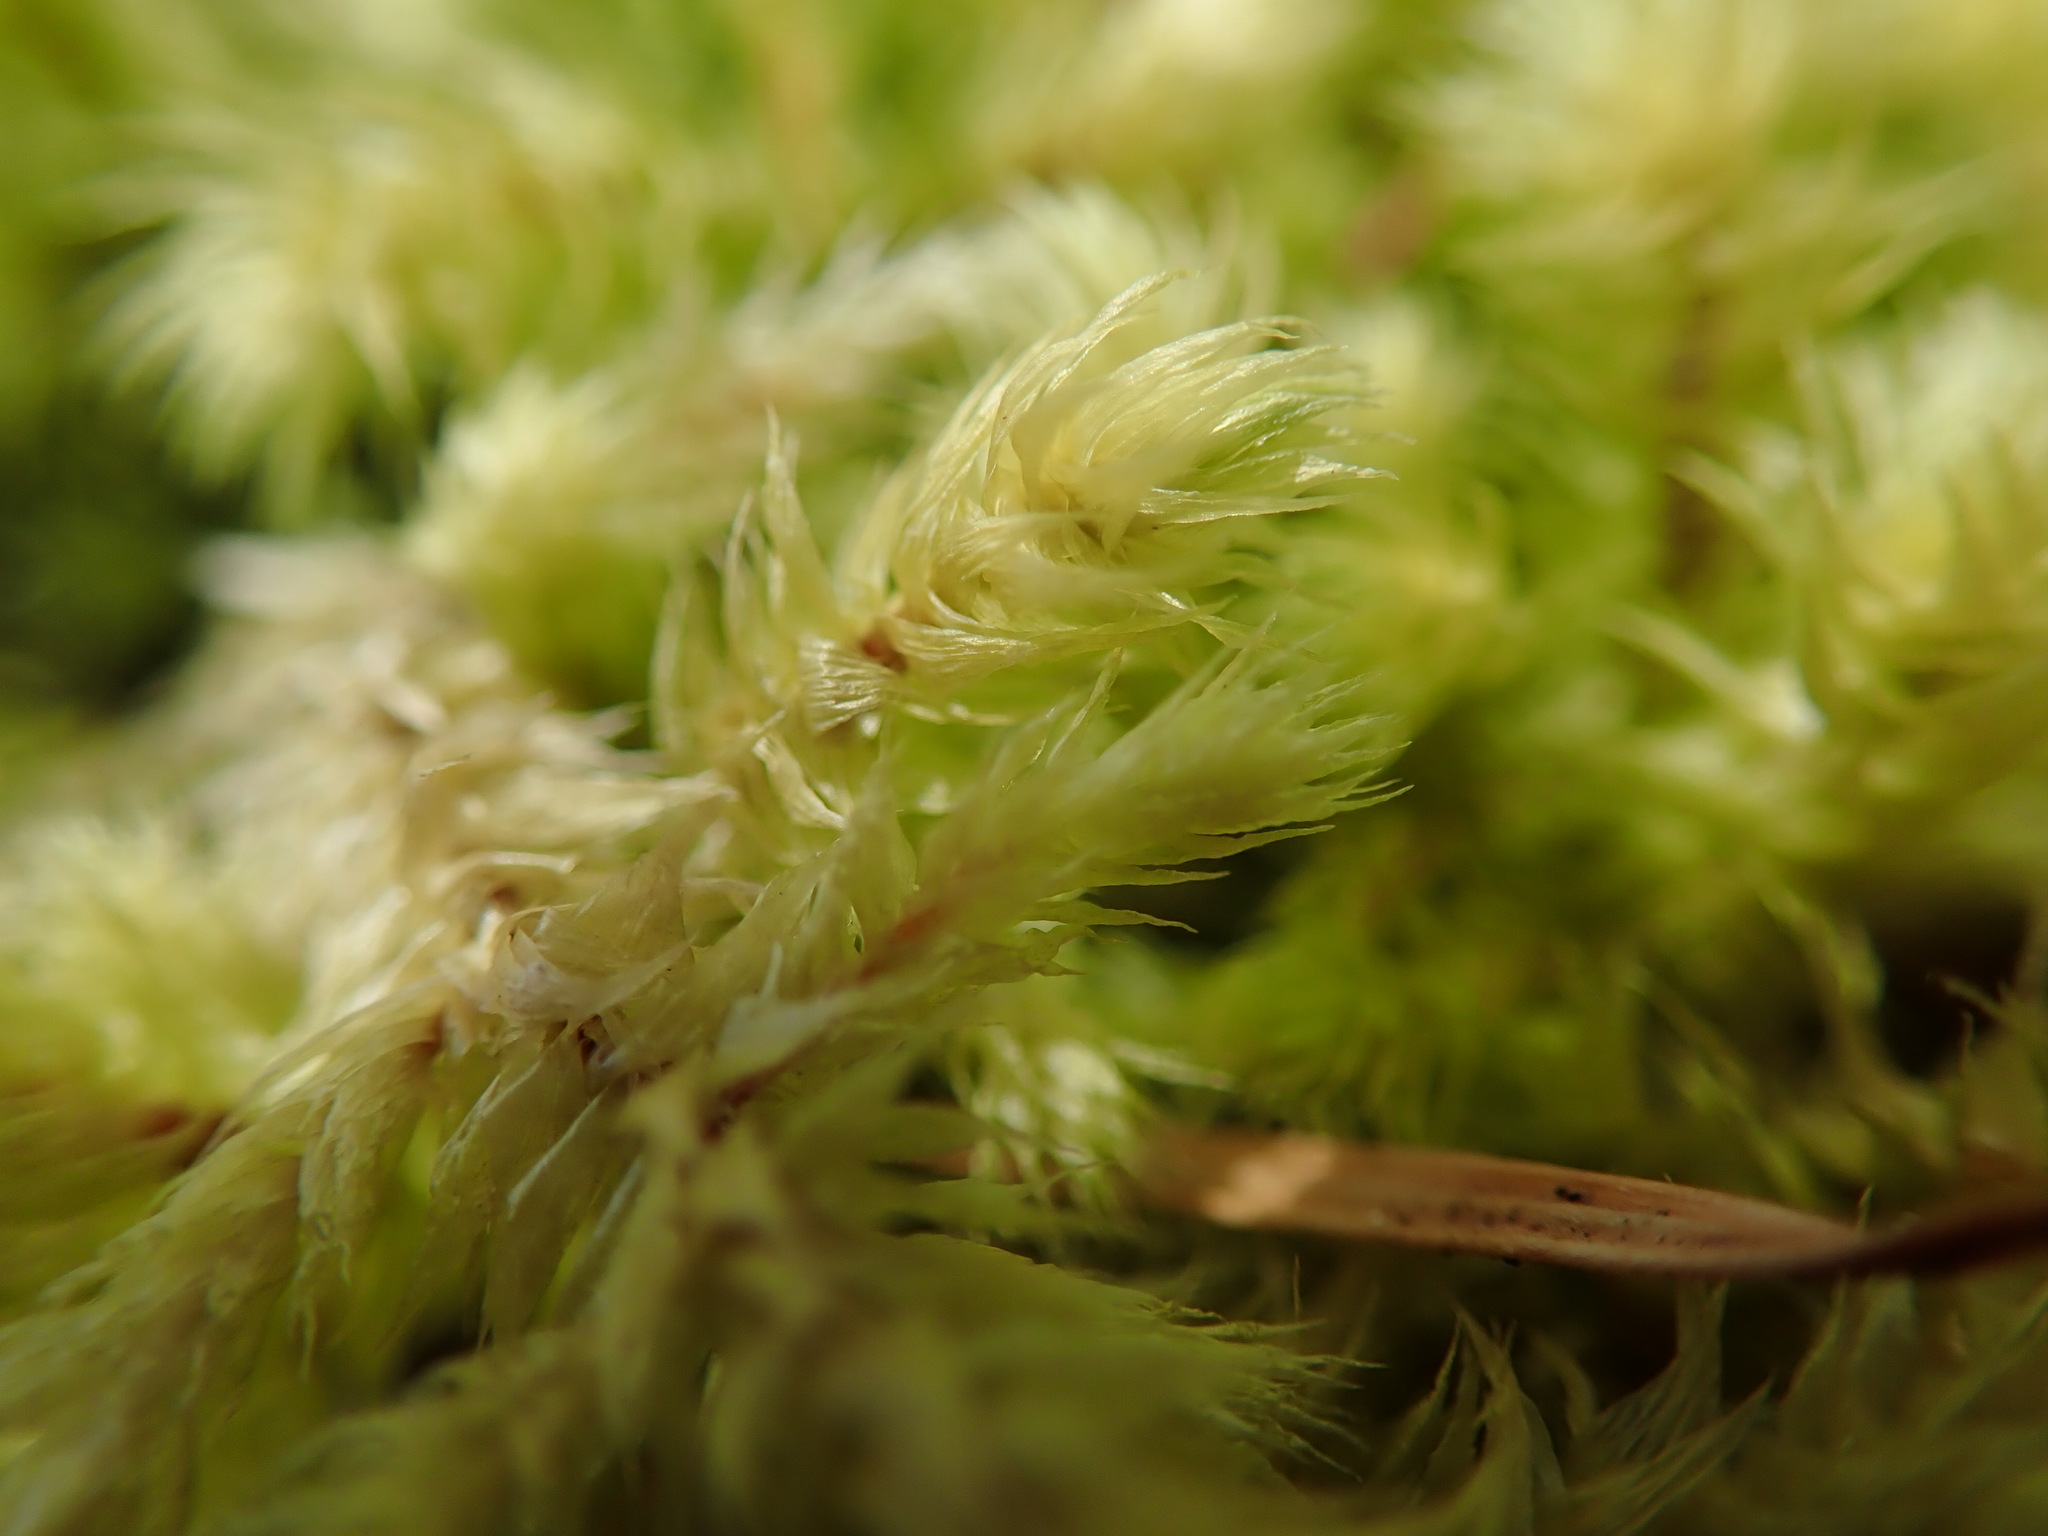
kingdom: Plantae
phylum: Bryophyta
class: Bryopsida
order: Hypnales
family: Hylocomiaceae
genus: Hylocomiadelphus
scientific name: Hylocomiadelphus triquetrus
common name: Rough goose neck moss
